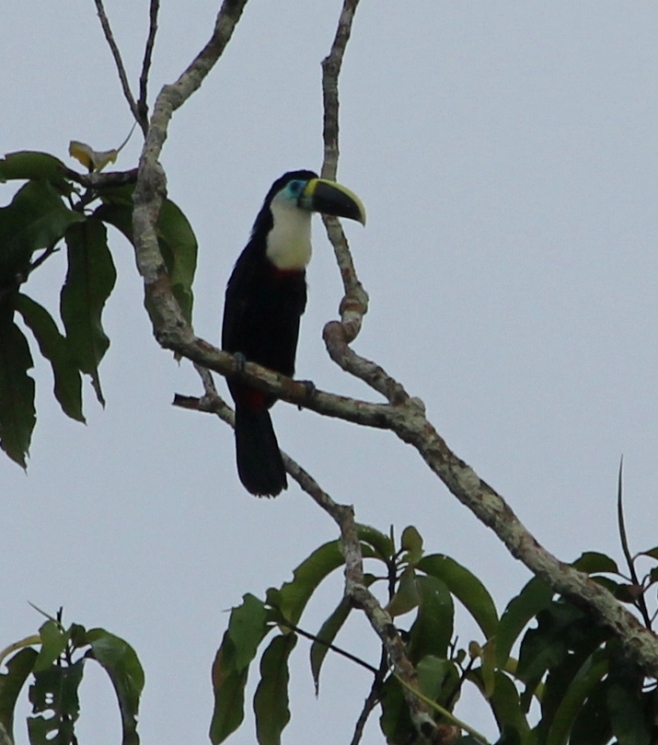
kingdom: Animalia
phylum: Chordata
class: Aves
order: Piciformes
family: Ramphastidae
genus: Ramphastos
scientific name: Ramphastos vitellinus
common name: Channel-billed toucan
